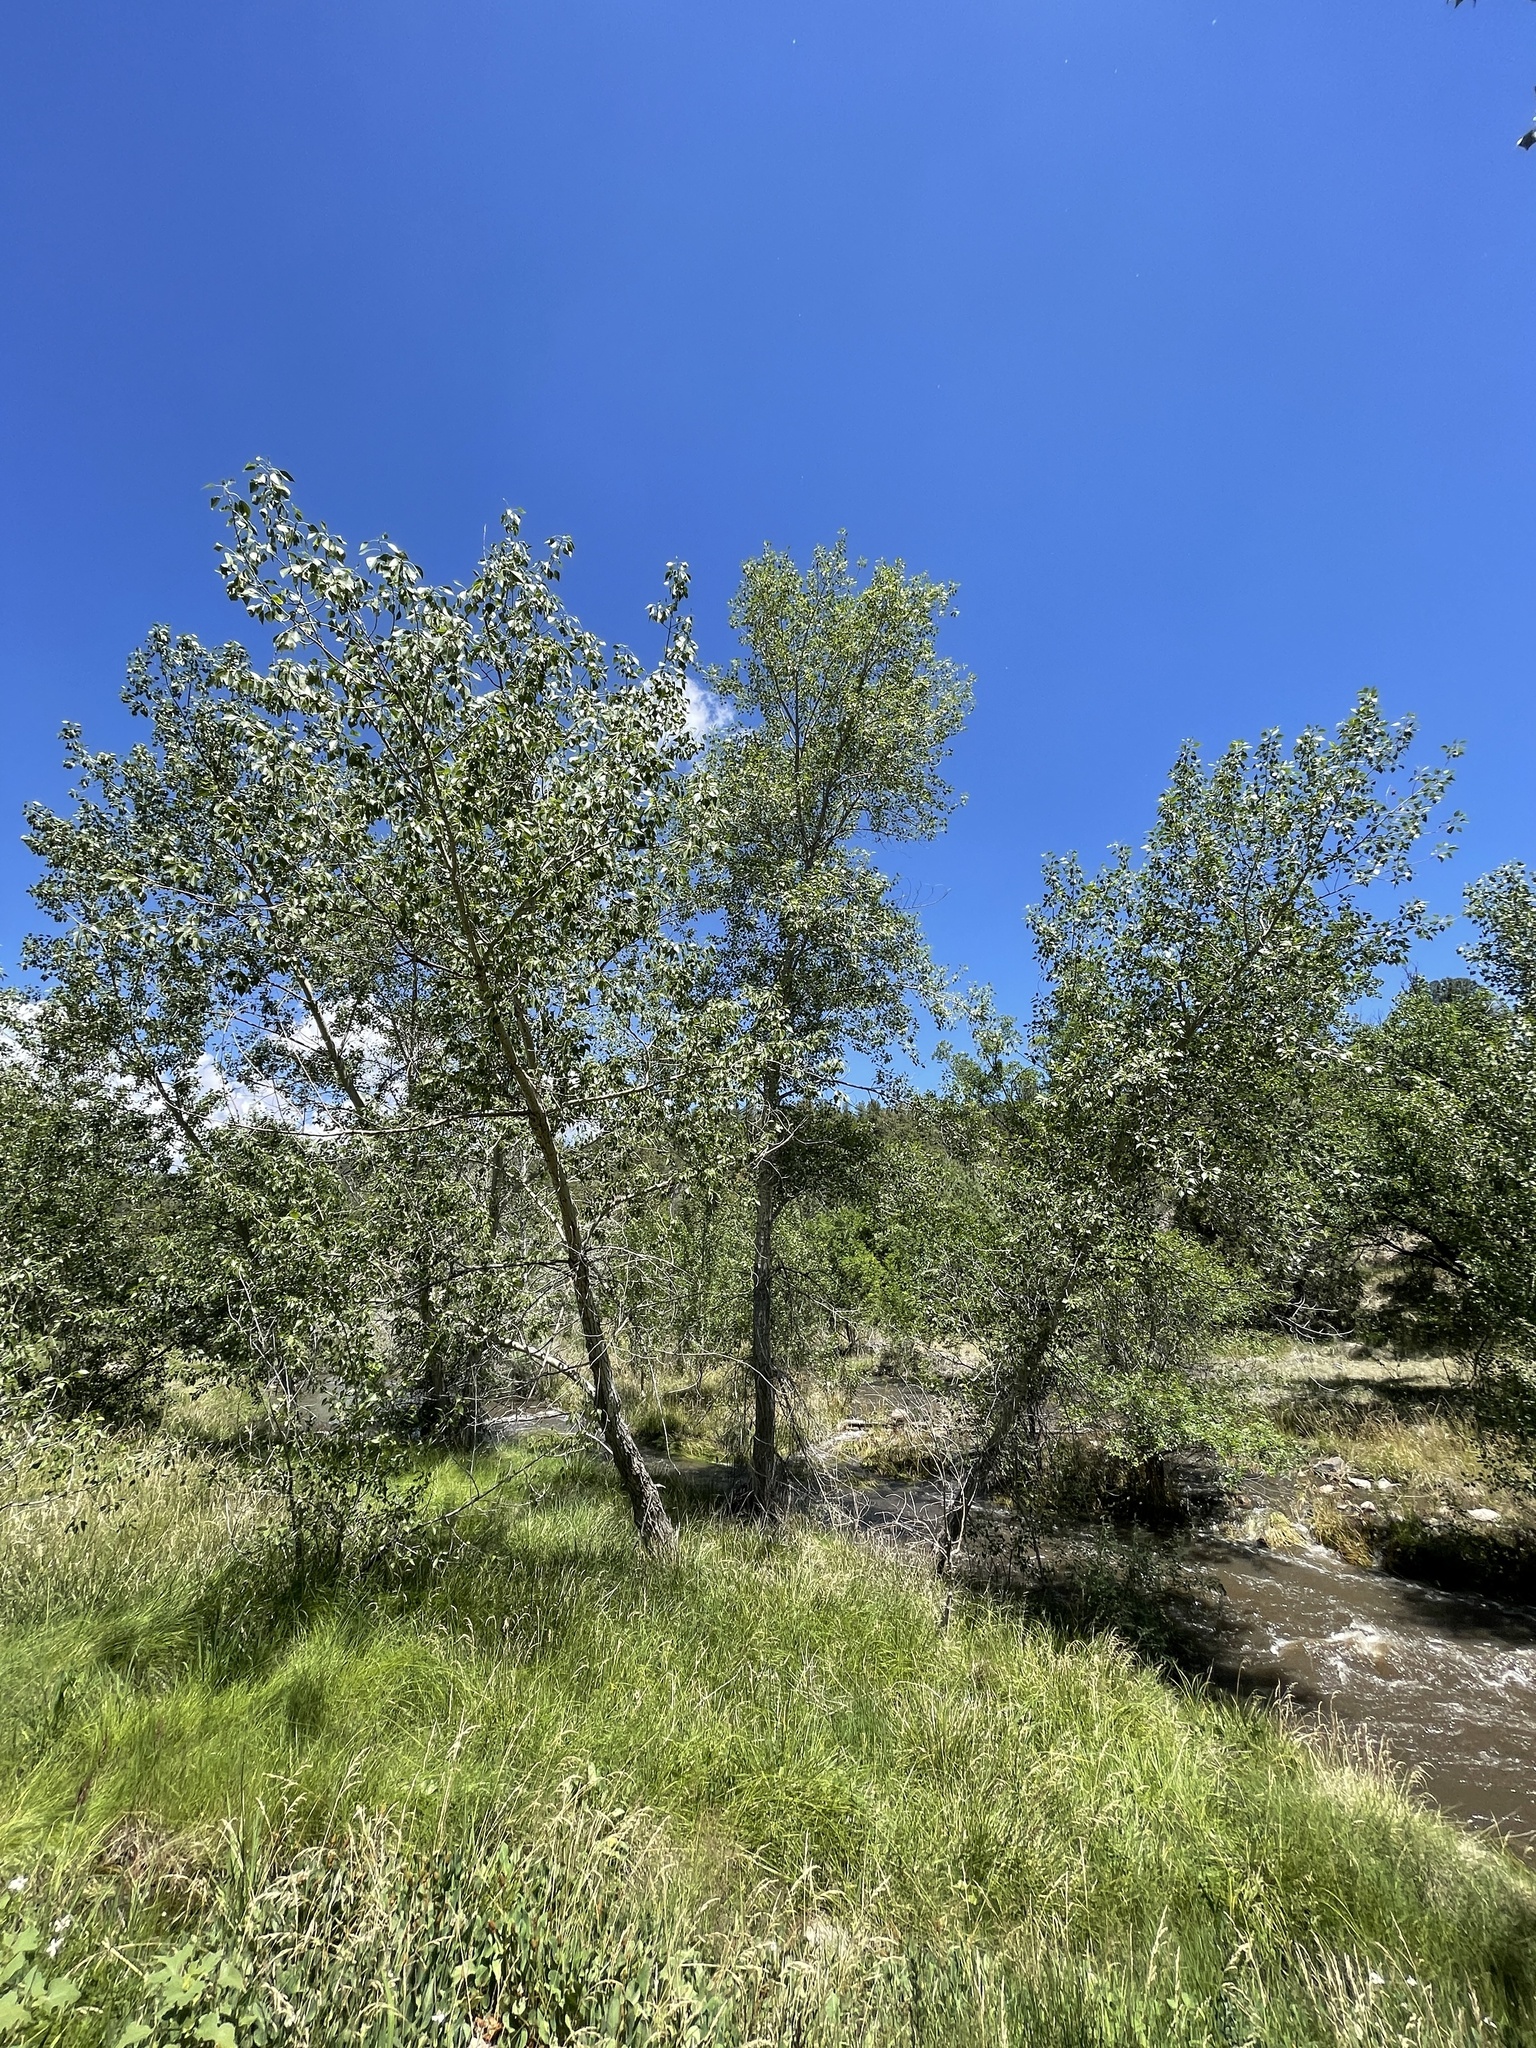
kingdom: Plantae
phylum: Tracheophyta
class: Magnoliopsida
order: Malpighiales
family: Salicaceae
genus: Populus
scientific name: Populus angustifolia
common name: Willow cottonwood
